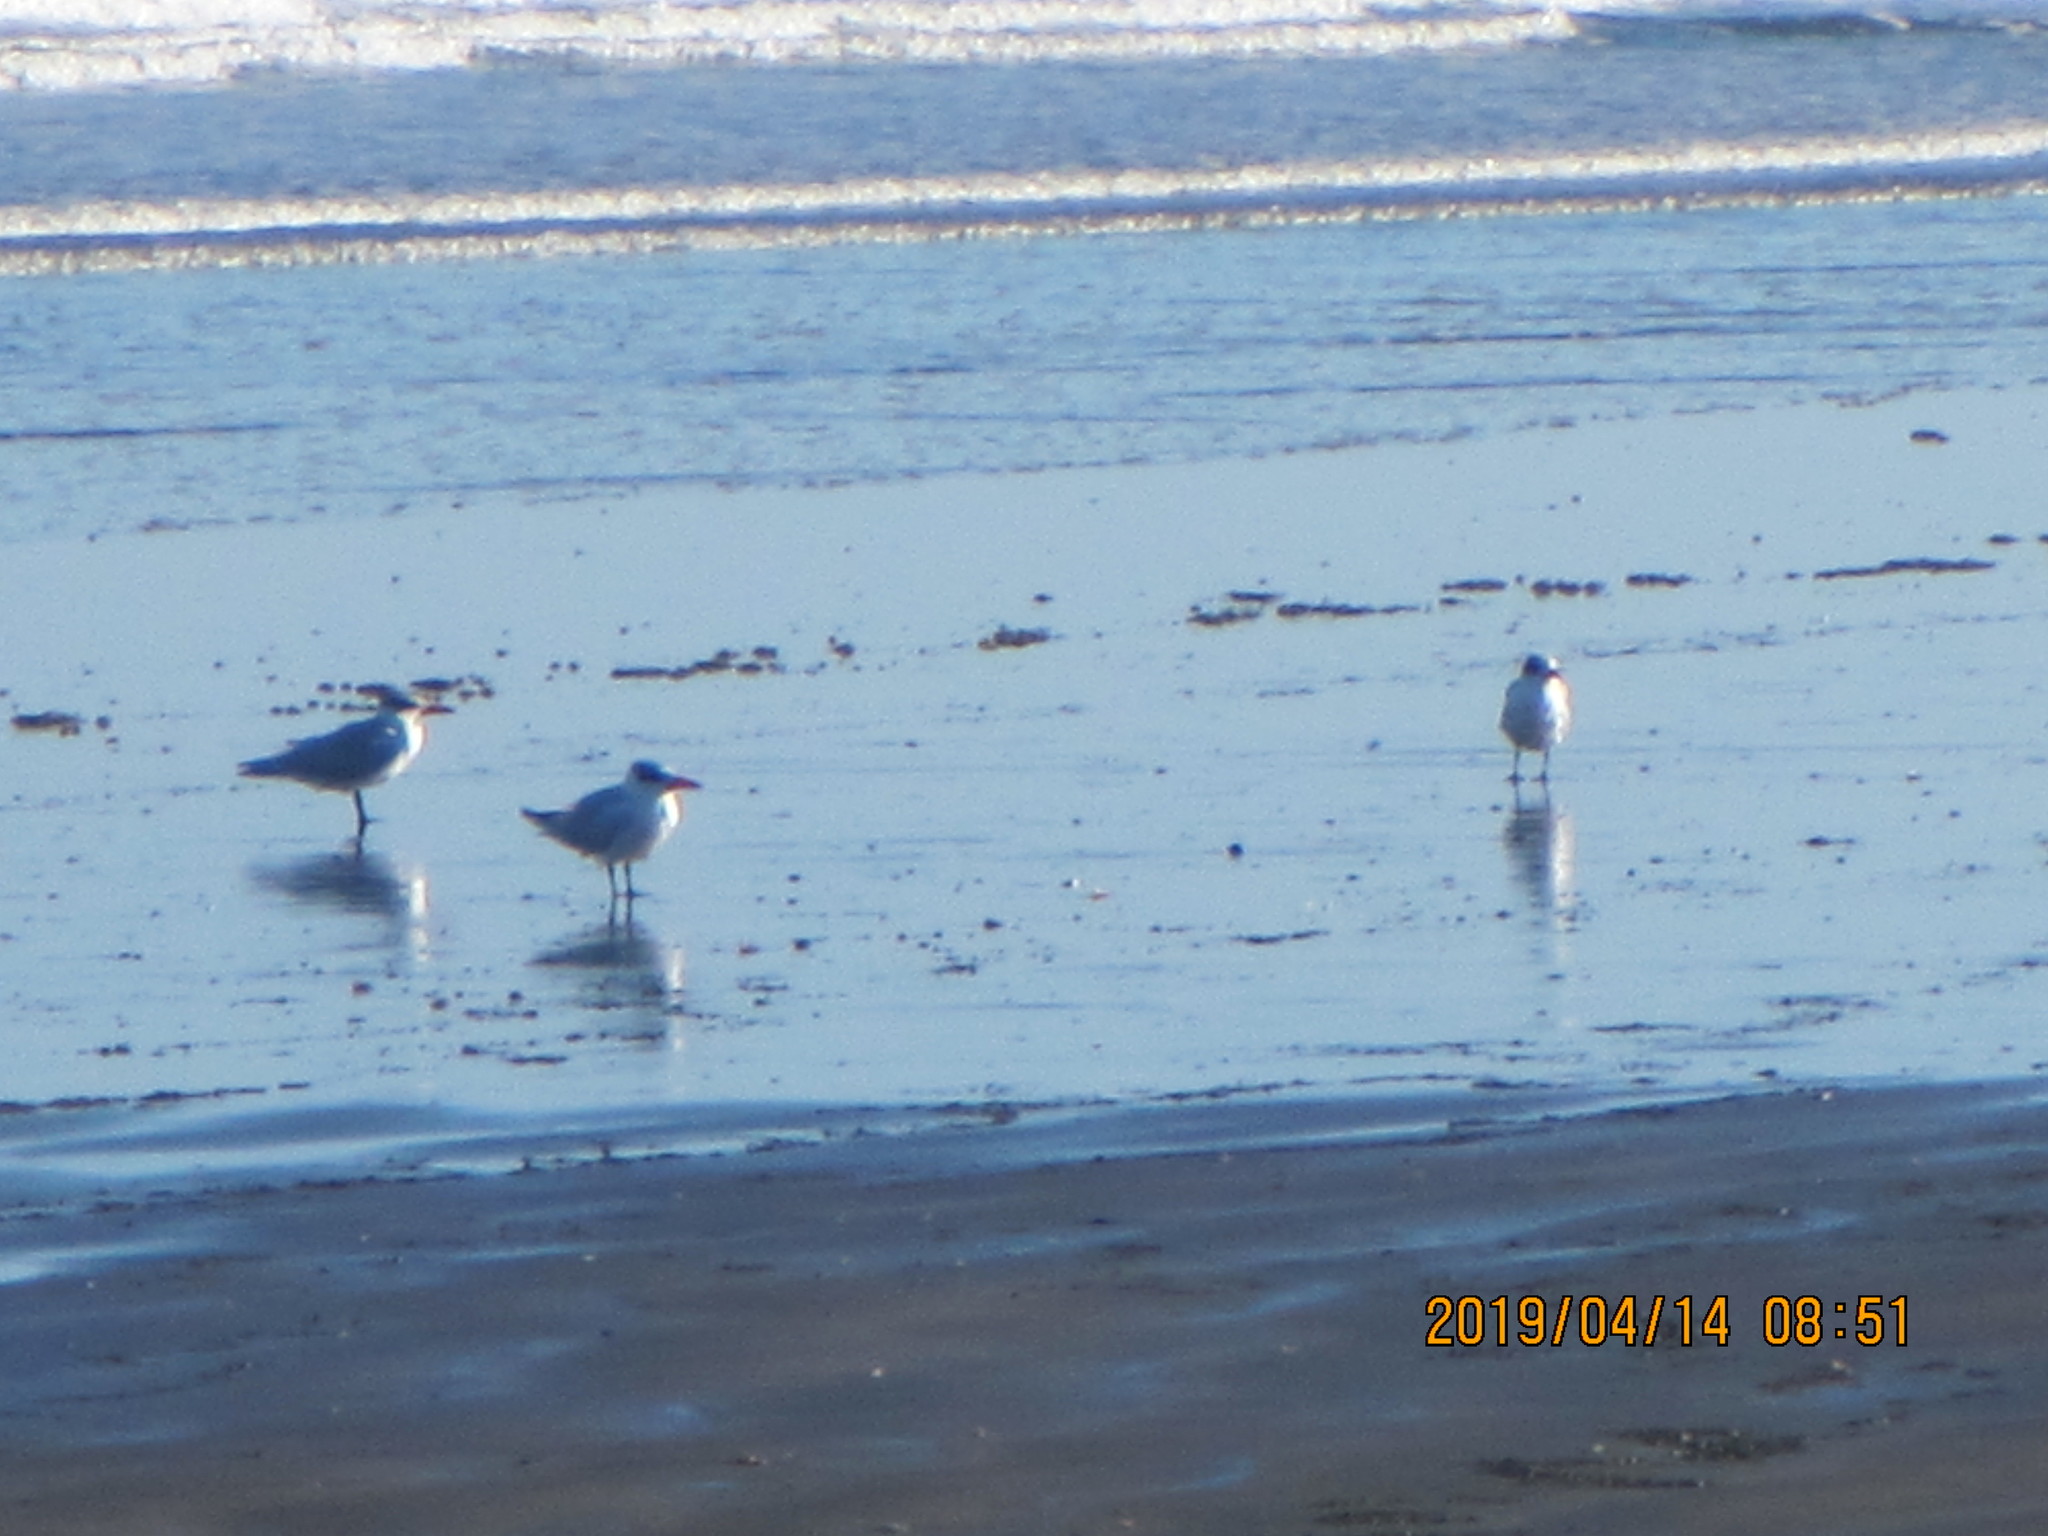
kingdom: Animalia
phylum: Chordata
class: Aves
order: Charadriiformes
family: Laridae
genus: Hydroprogne
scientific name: Hydroprogne caspia
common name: Caspian tern
